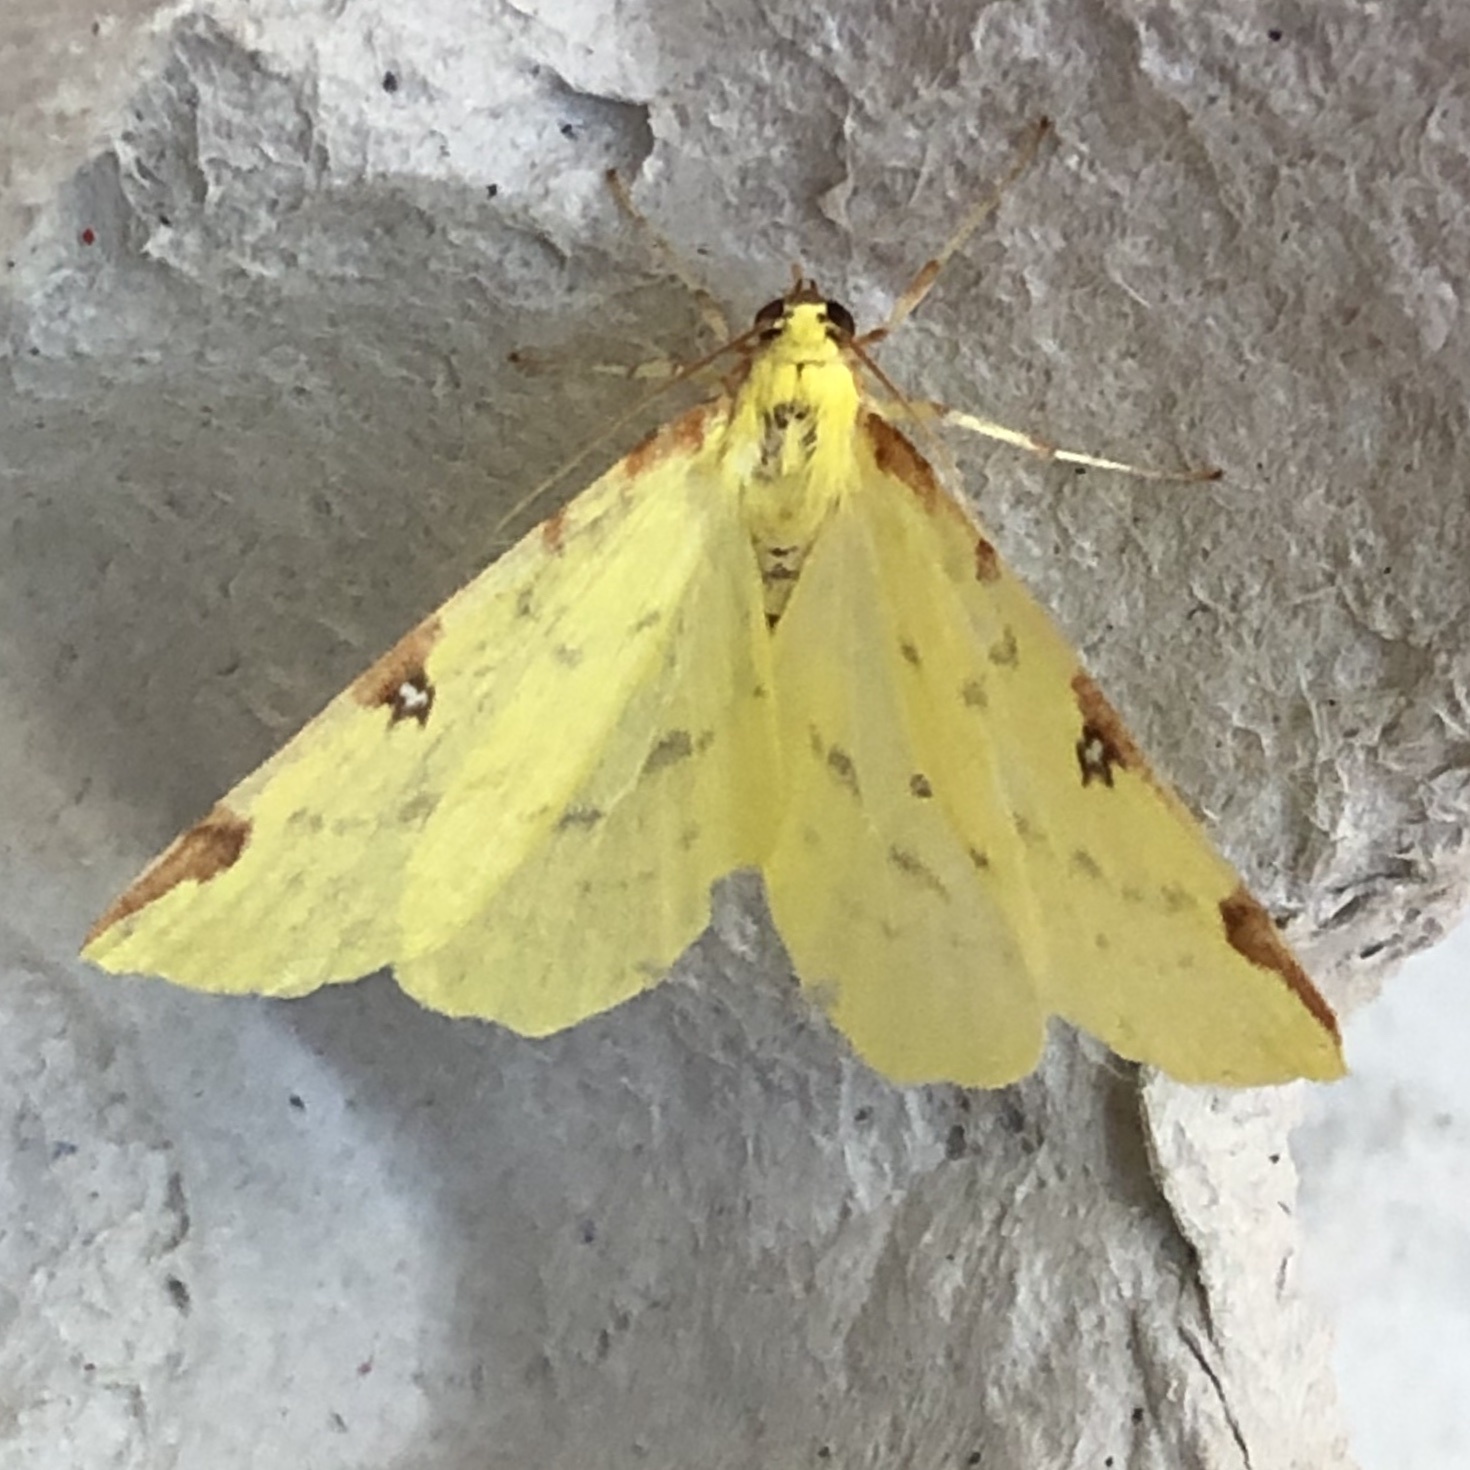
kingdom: Animalia
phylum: Arthropoda
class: Insecta
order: Lepidoptera
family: Geometridae
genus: Opisthograptis
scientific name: Opisthograptis luteolata
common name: Brimstone moth
